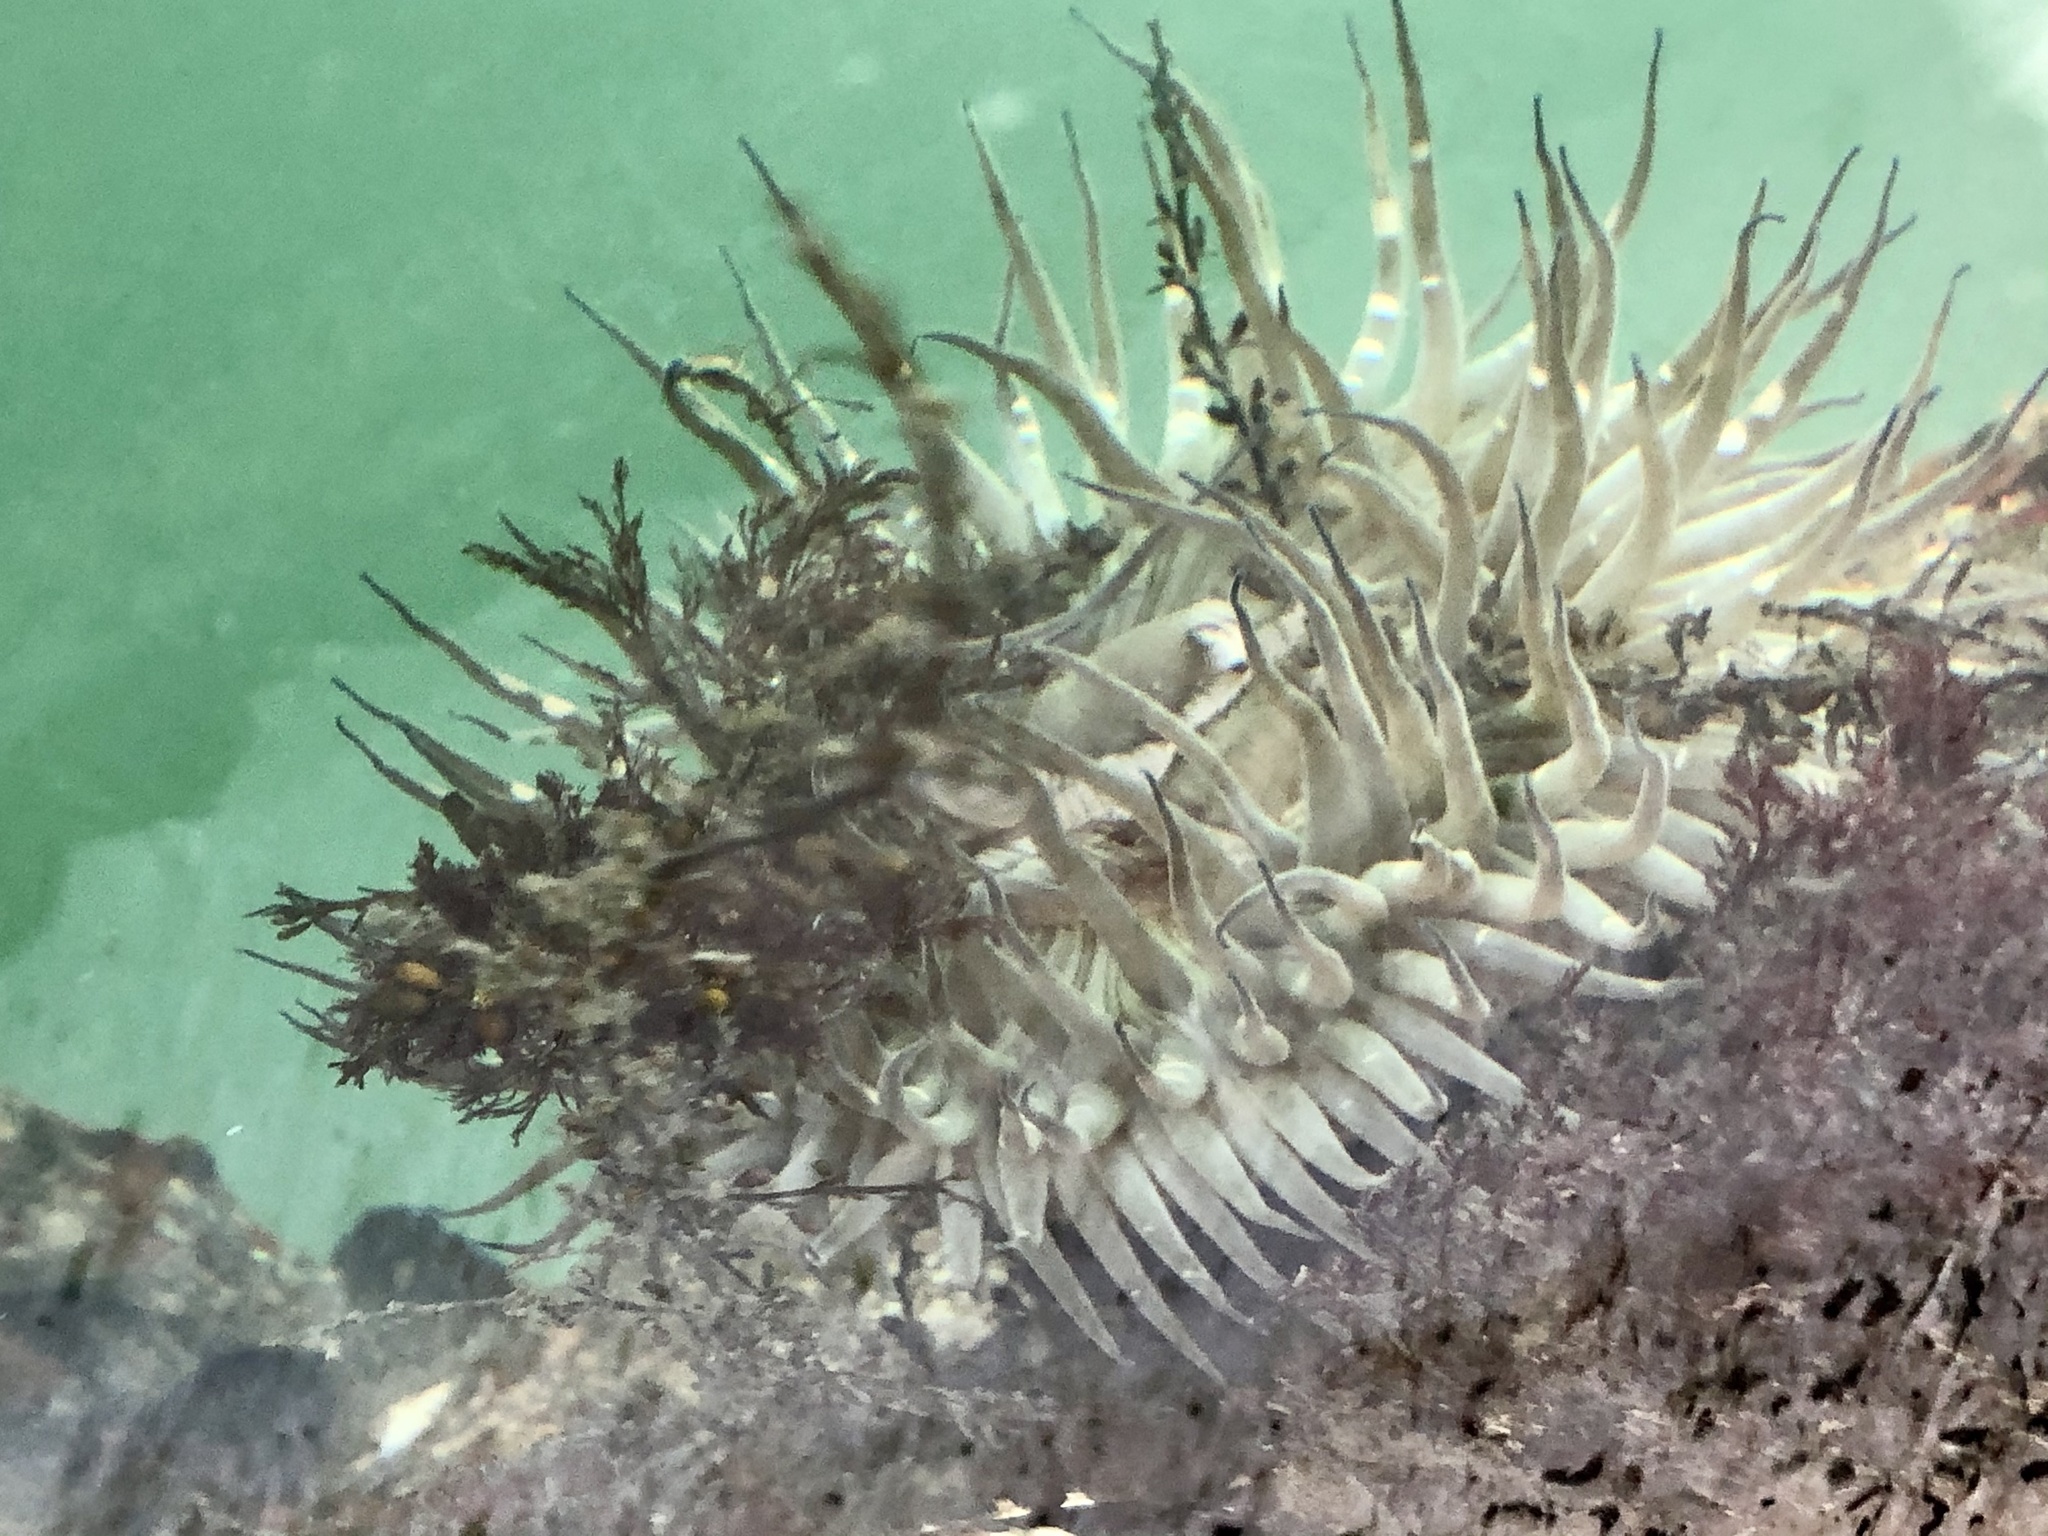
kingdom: Animalia
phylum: Cnidaria
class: Anthozoa
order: Actiniaria
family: Actiniidae
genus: Anthopleura
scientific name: Anthopleura sola
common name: Sun anemone
